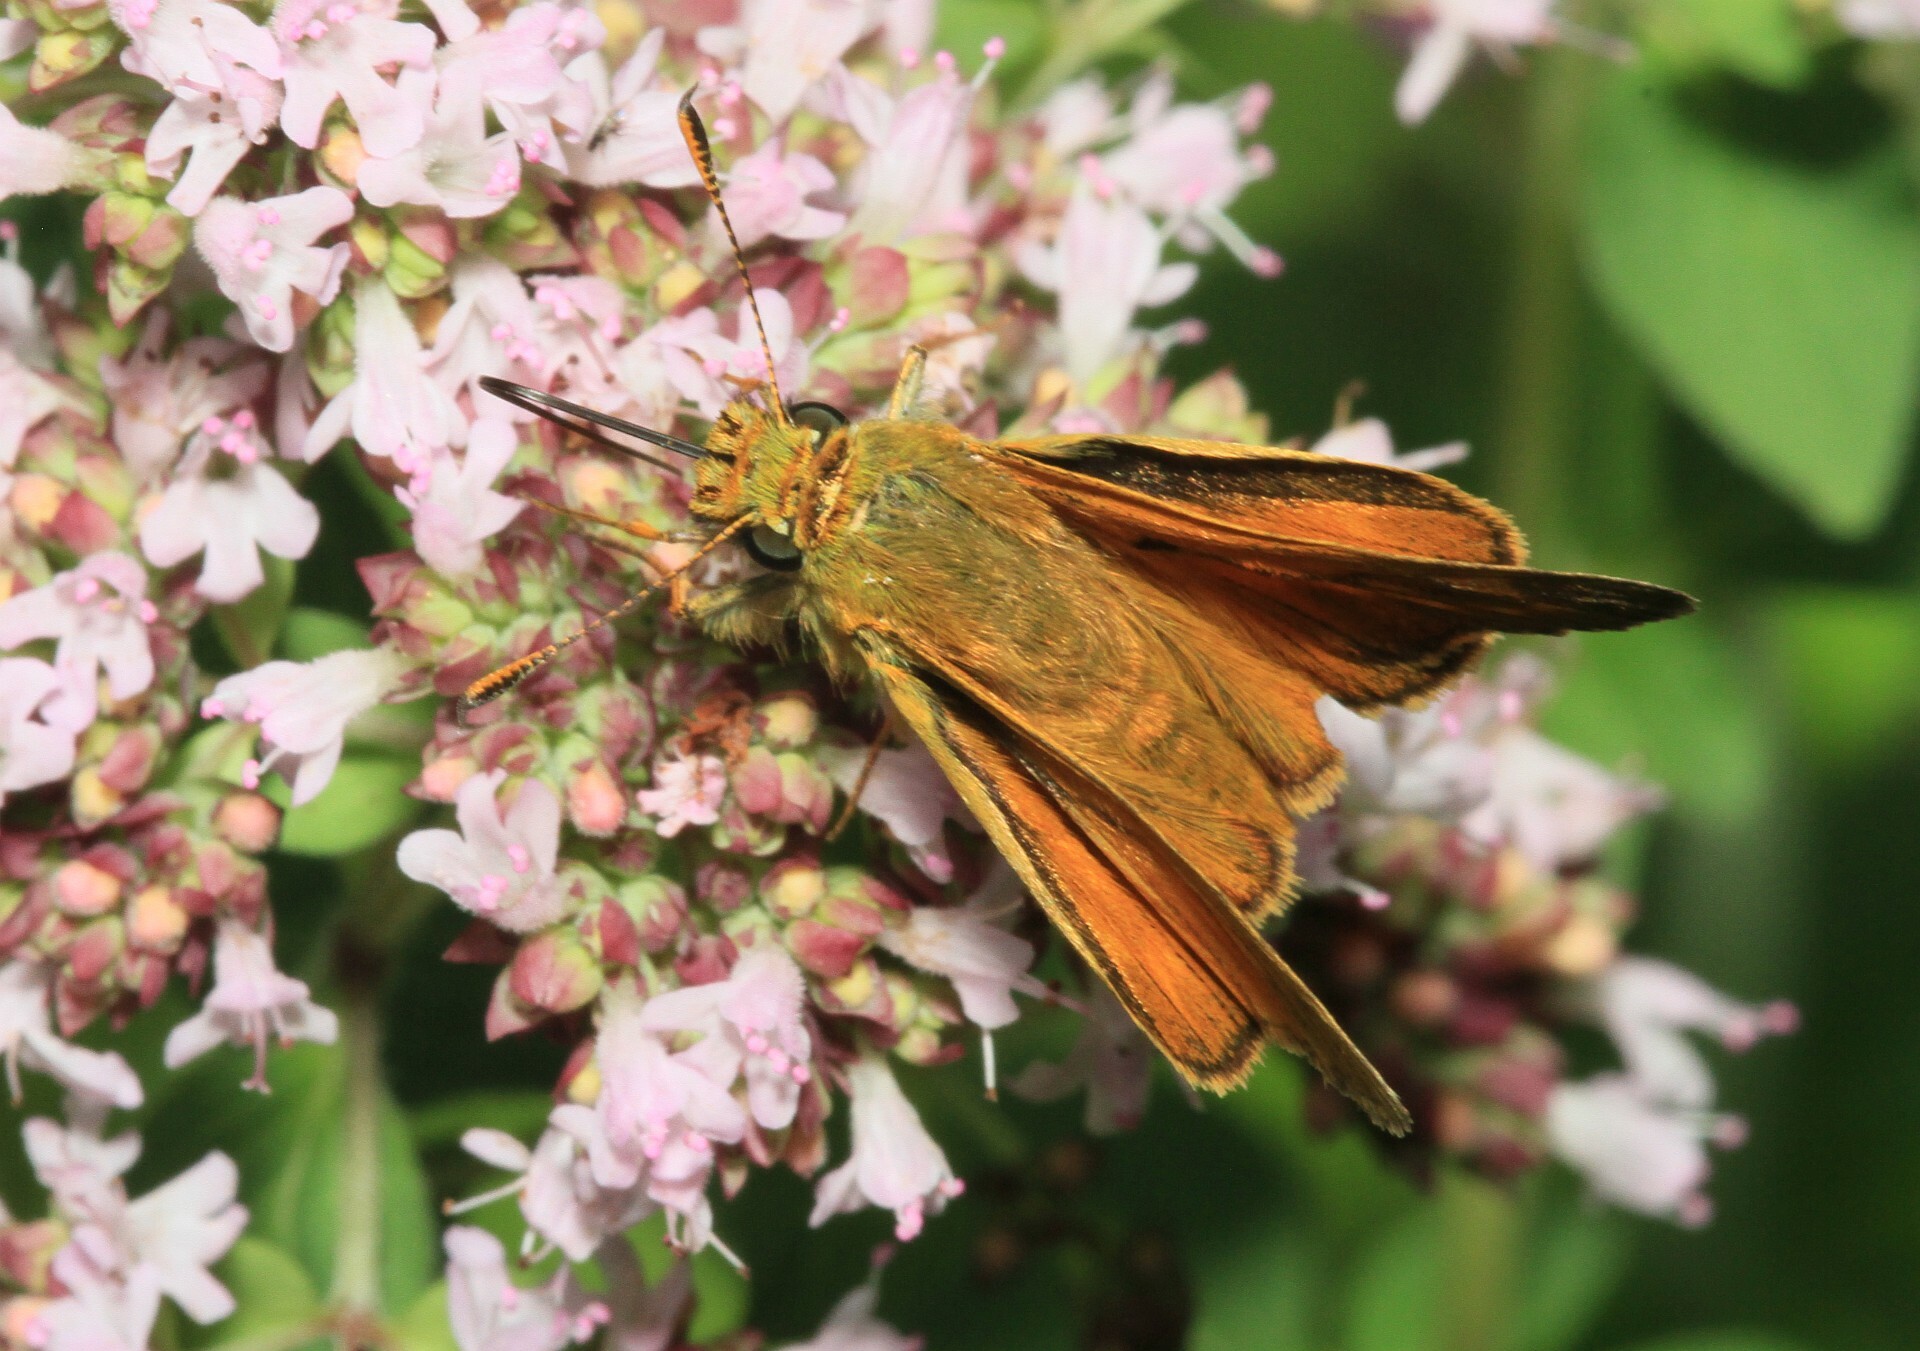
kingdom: Animalia
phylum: Arthropoda
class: Insecta
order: Lepidoptera
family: Hesperiidae
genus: Ochlodes
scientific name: Ochlodes venata
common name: Large skipper
